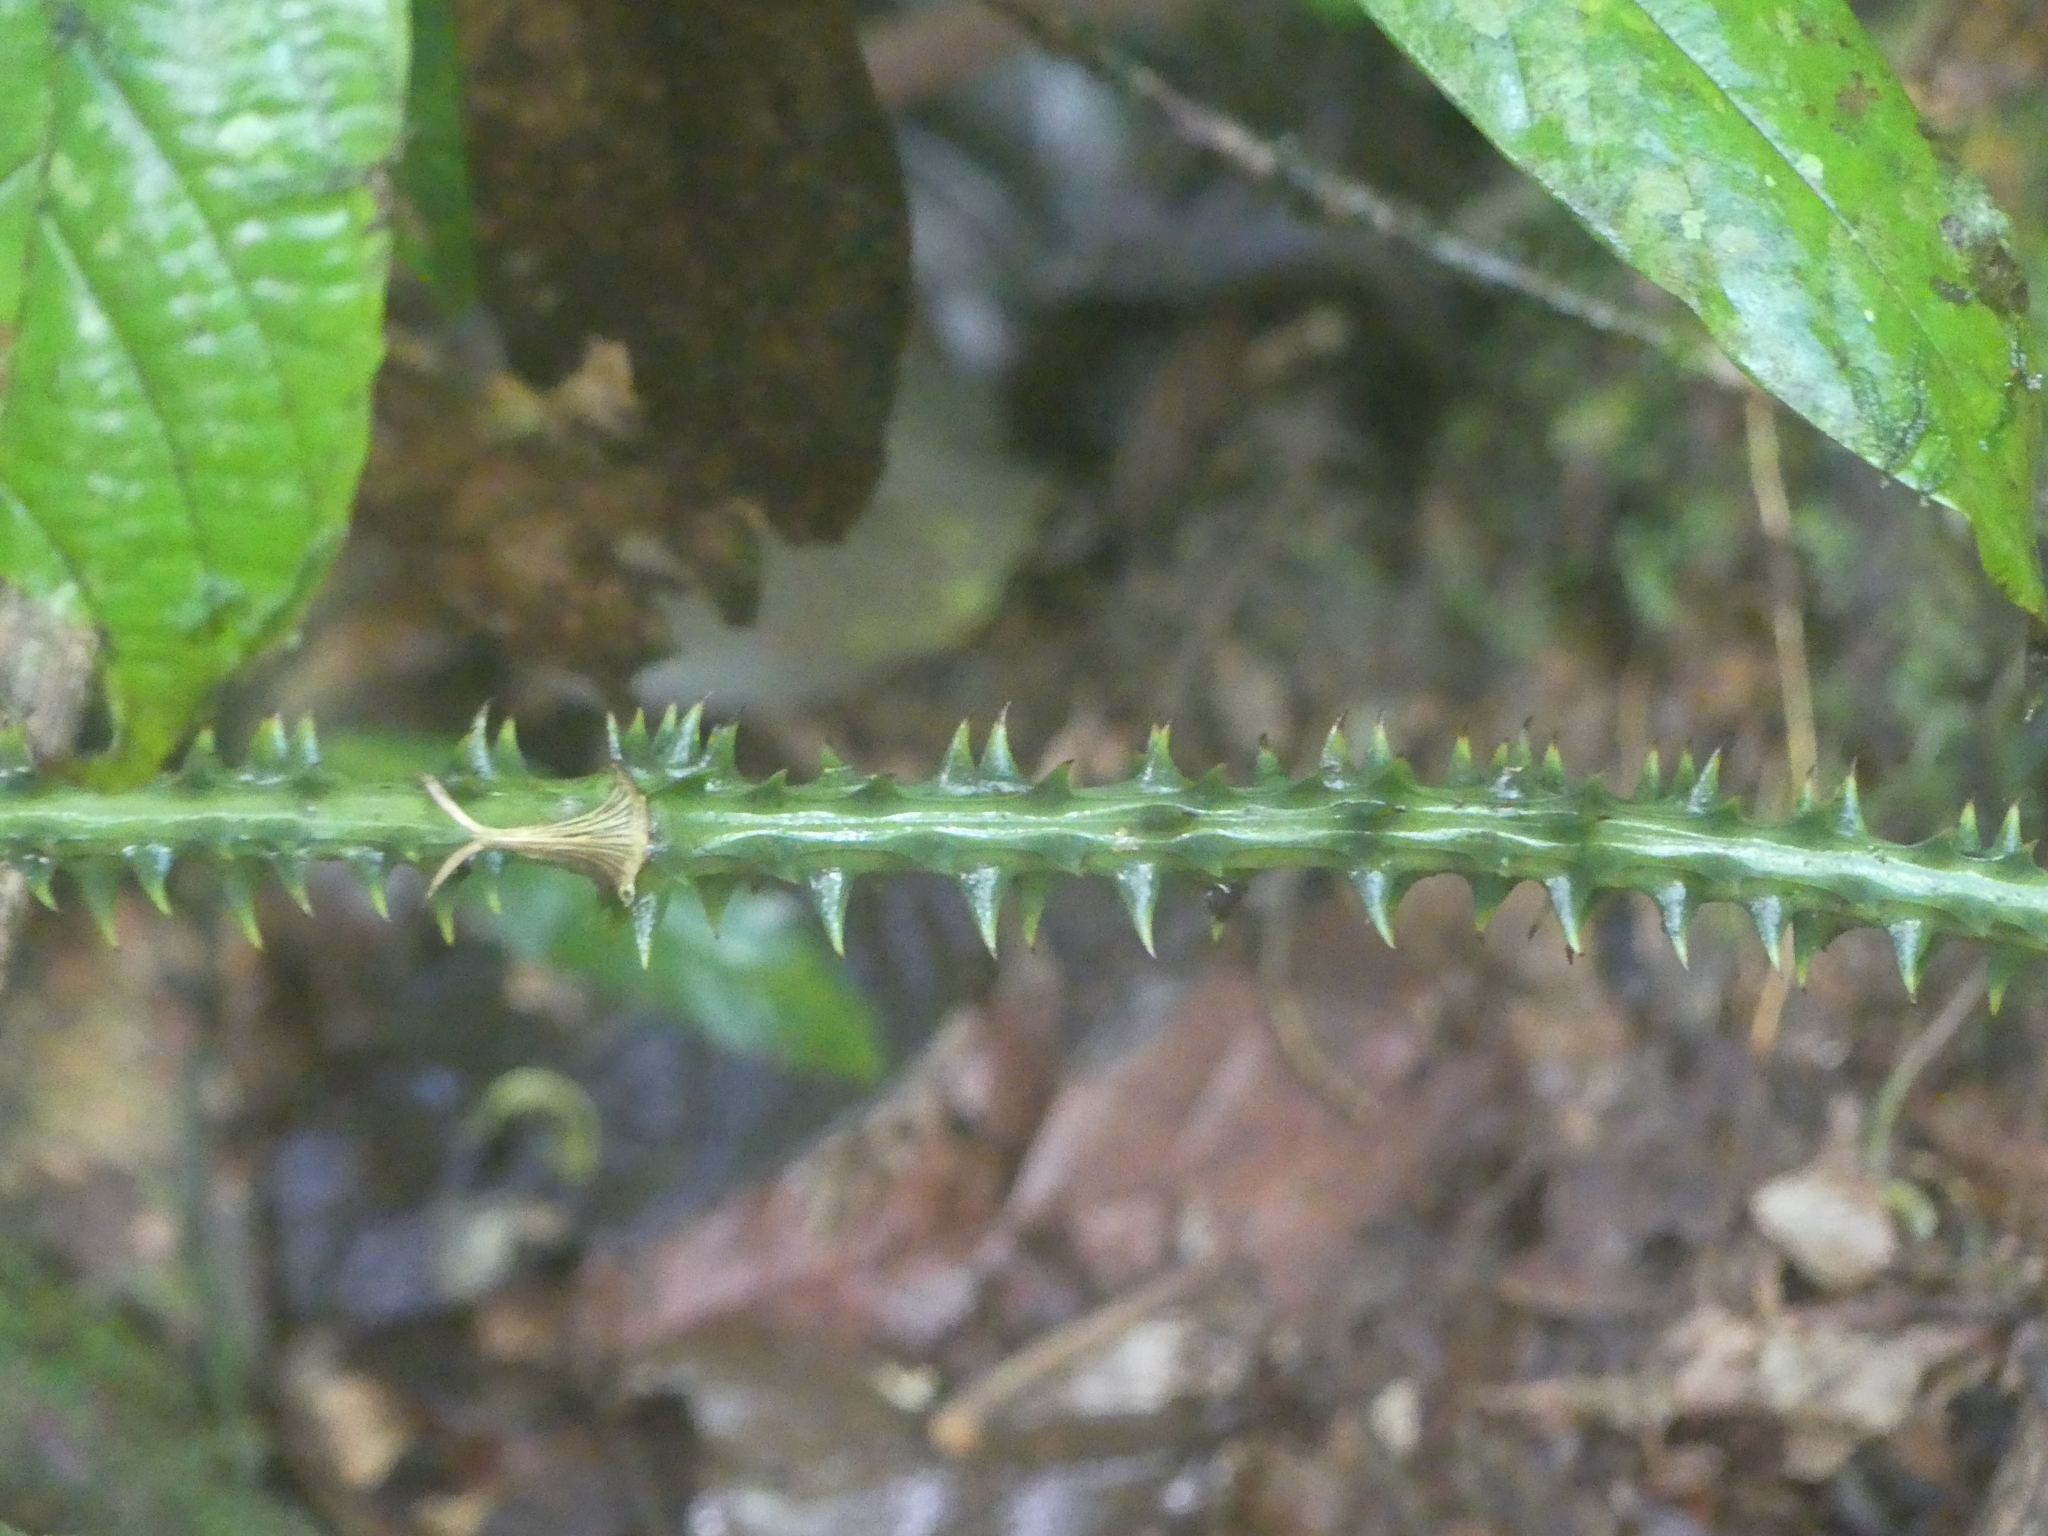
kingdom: Plantae
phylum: Tracheophyta
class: Liliopsida
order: Liliales
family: Smilacaceae
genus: Smilax
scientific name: Smilax siphilitica
